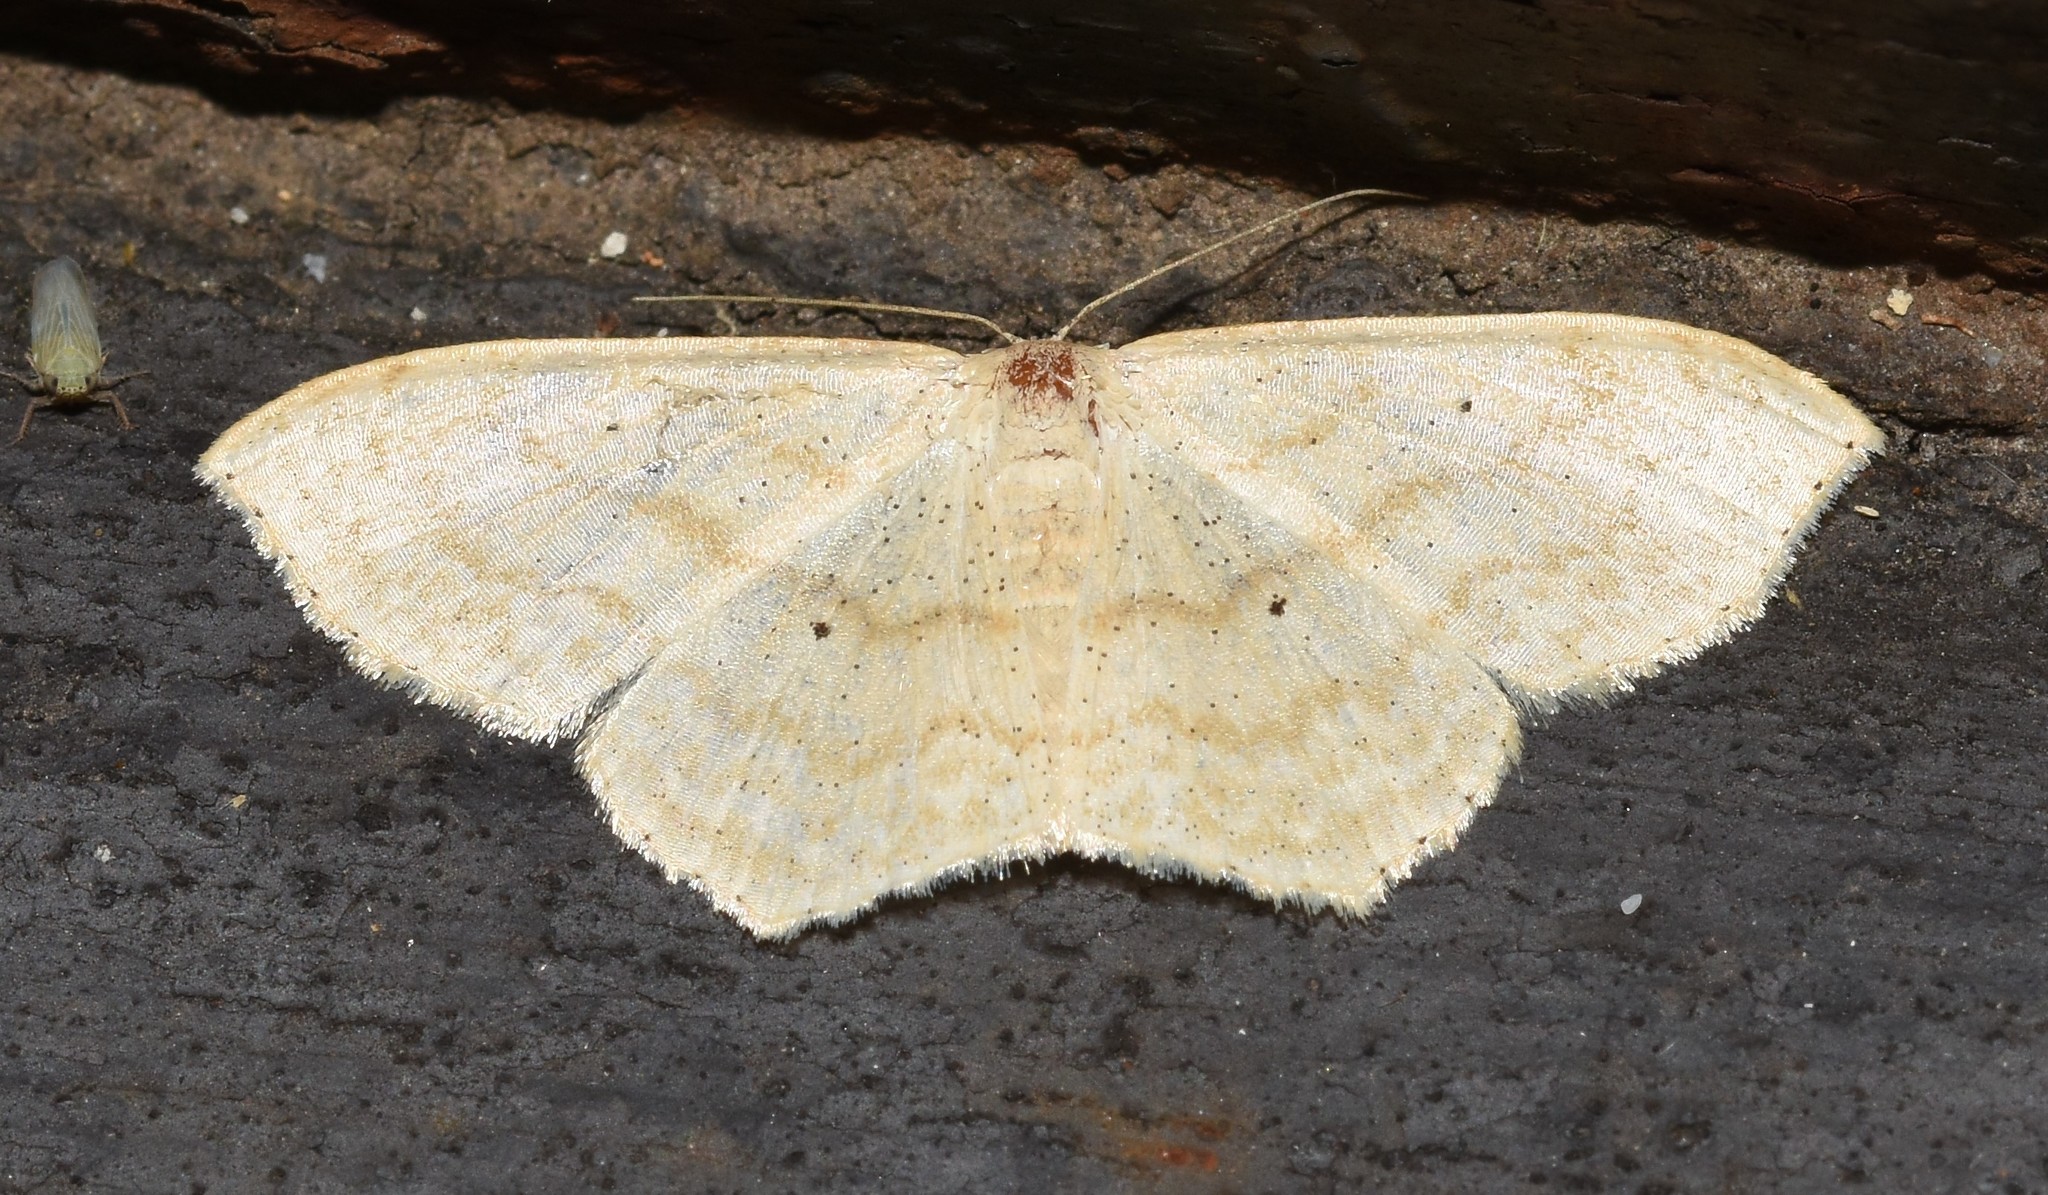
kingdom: Animalia
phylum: Arthropoda
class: Insecta
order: Lepidoptera
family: Geometridae
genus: Scopula
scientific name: Scopula limboundata
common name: Large lace border
